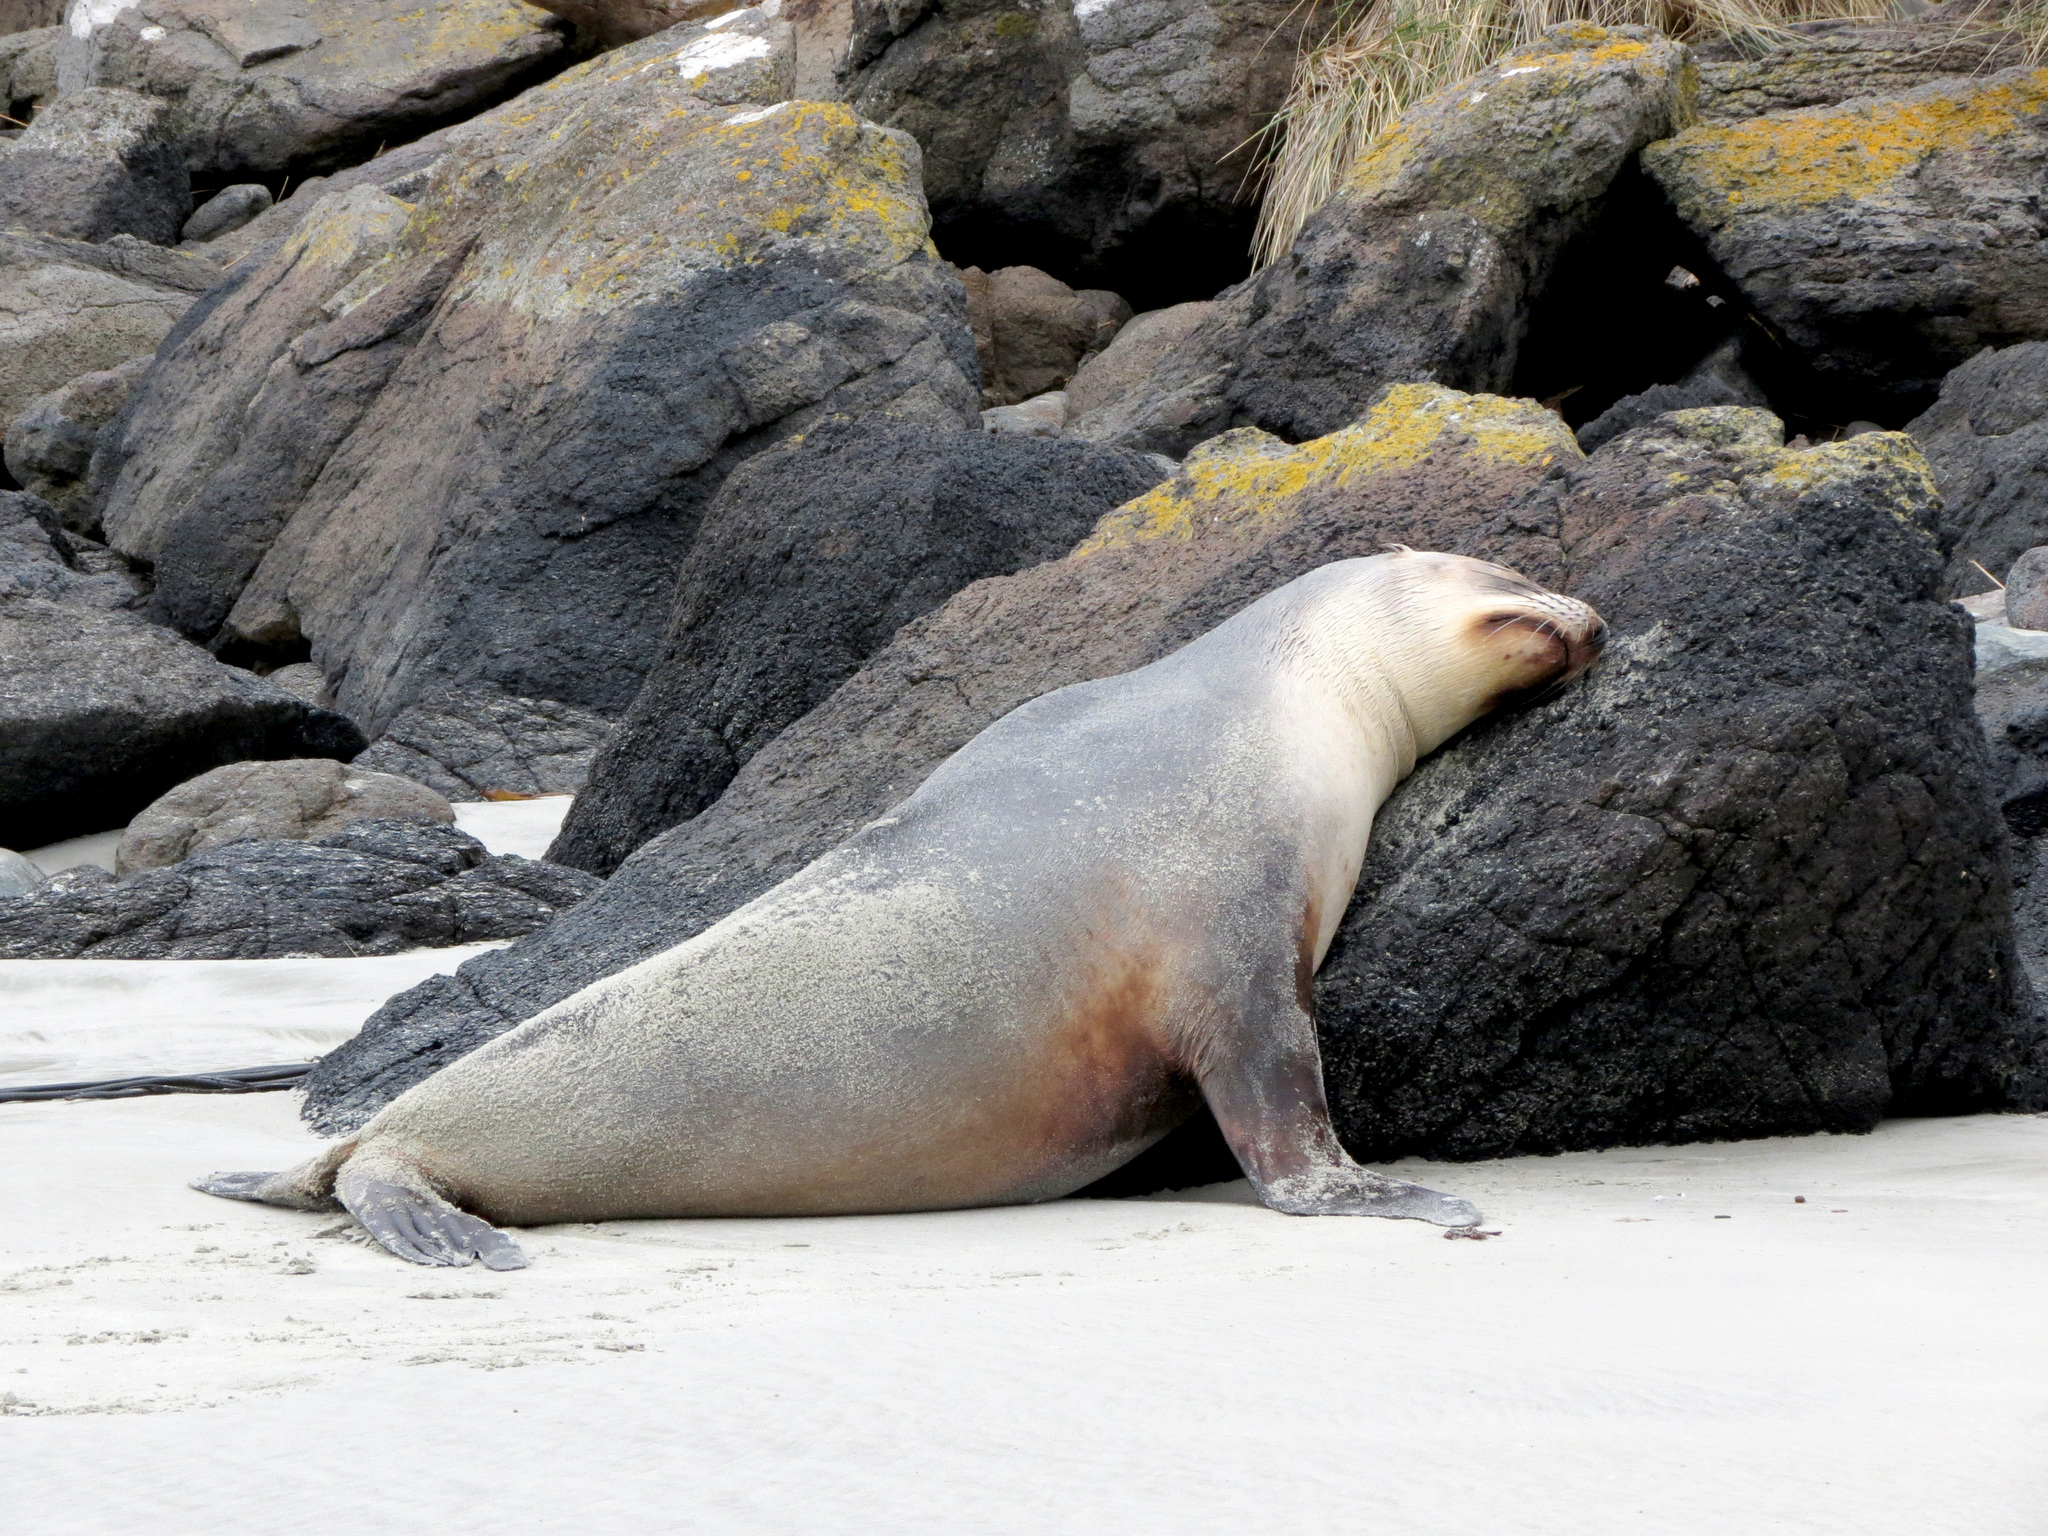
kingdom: Animalia
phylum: Chordata
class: Mammalia
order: Carnivora
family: Otariidae
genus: Phocarctos
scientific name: Phocarctos hookeri
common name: New zealand sea lion
